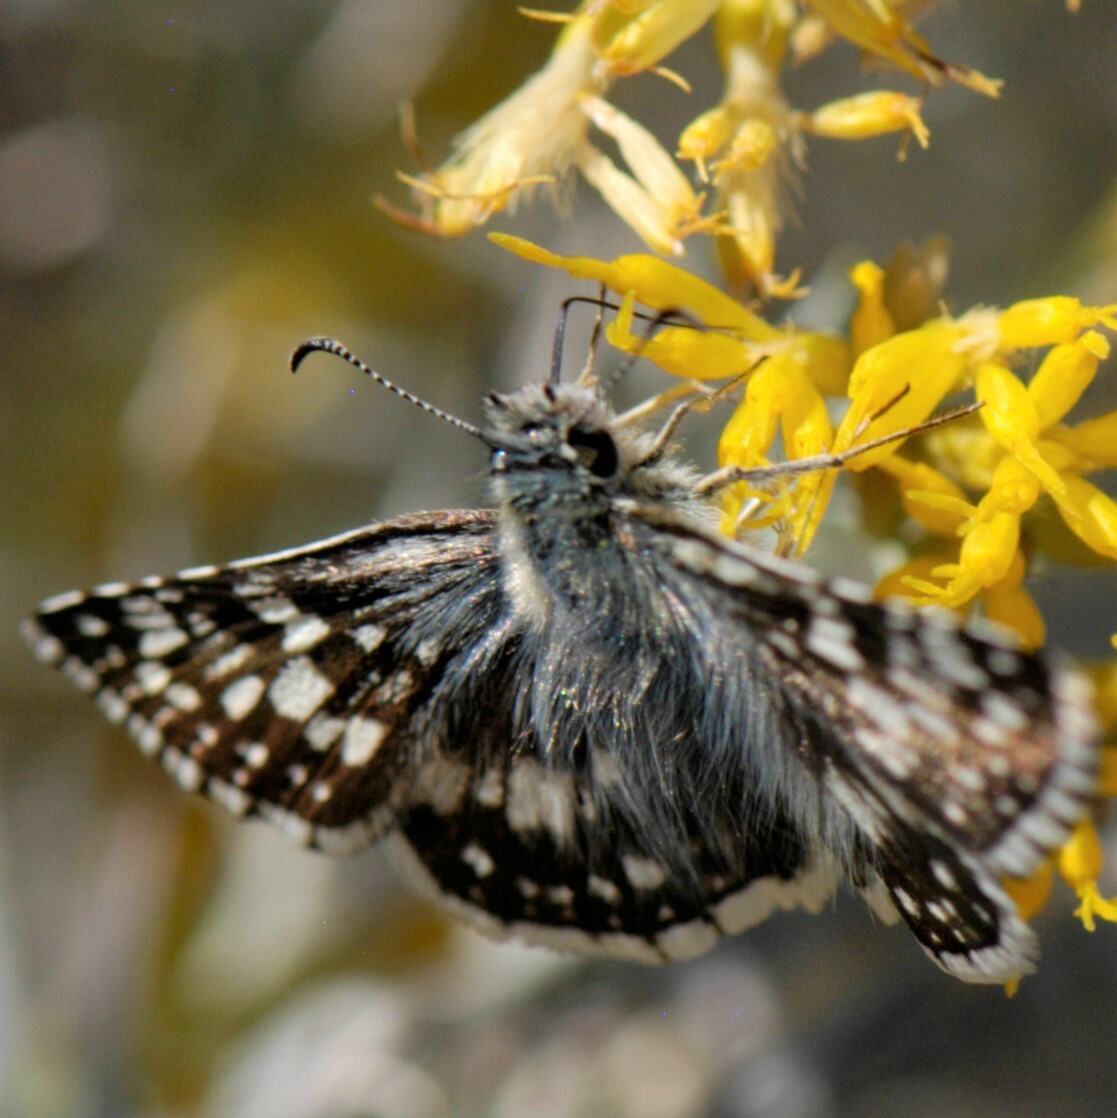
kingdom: Animalia
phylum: Arthropoda
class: Insecta
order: Lepidoptera
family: Hesperiidae
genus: Burnsius
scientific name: Burnsius
